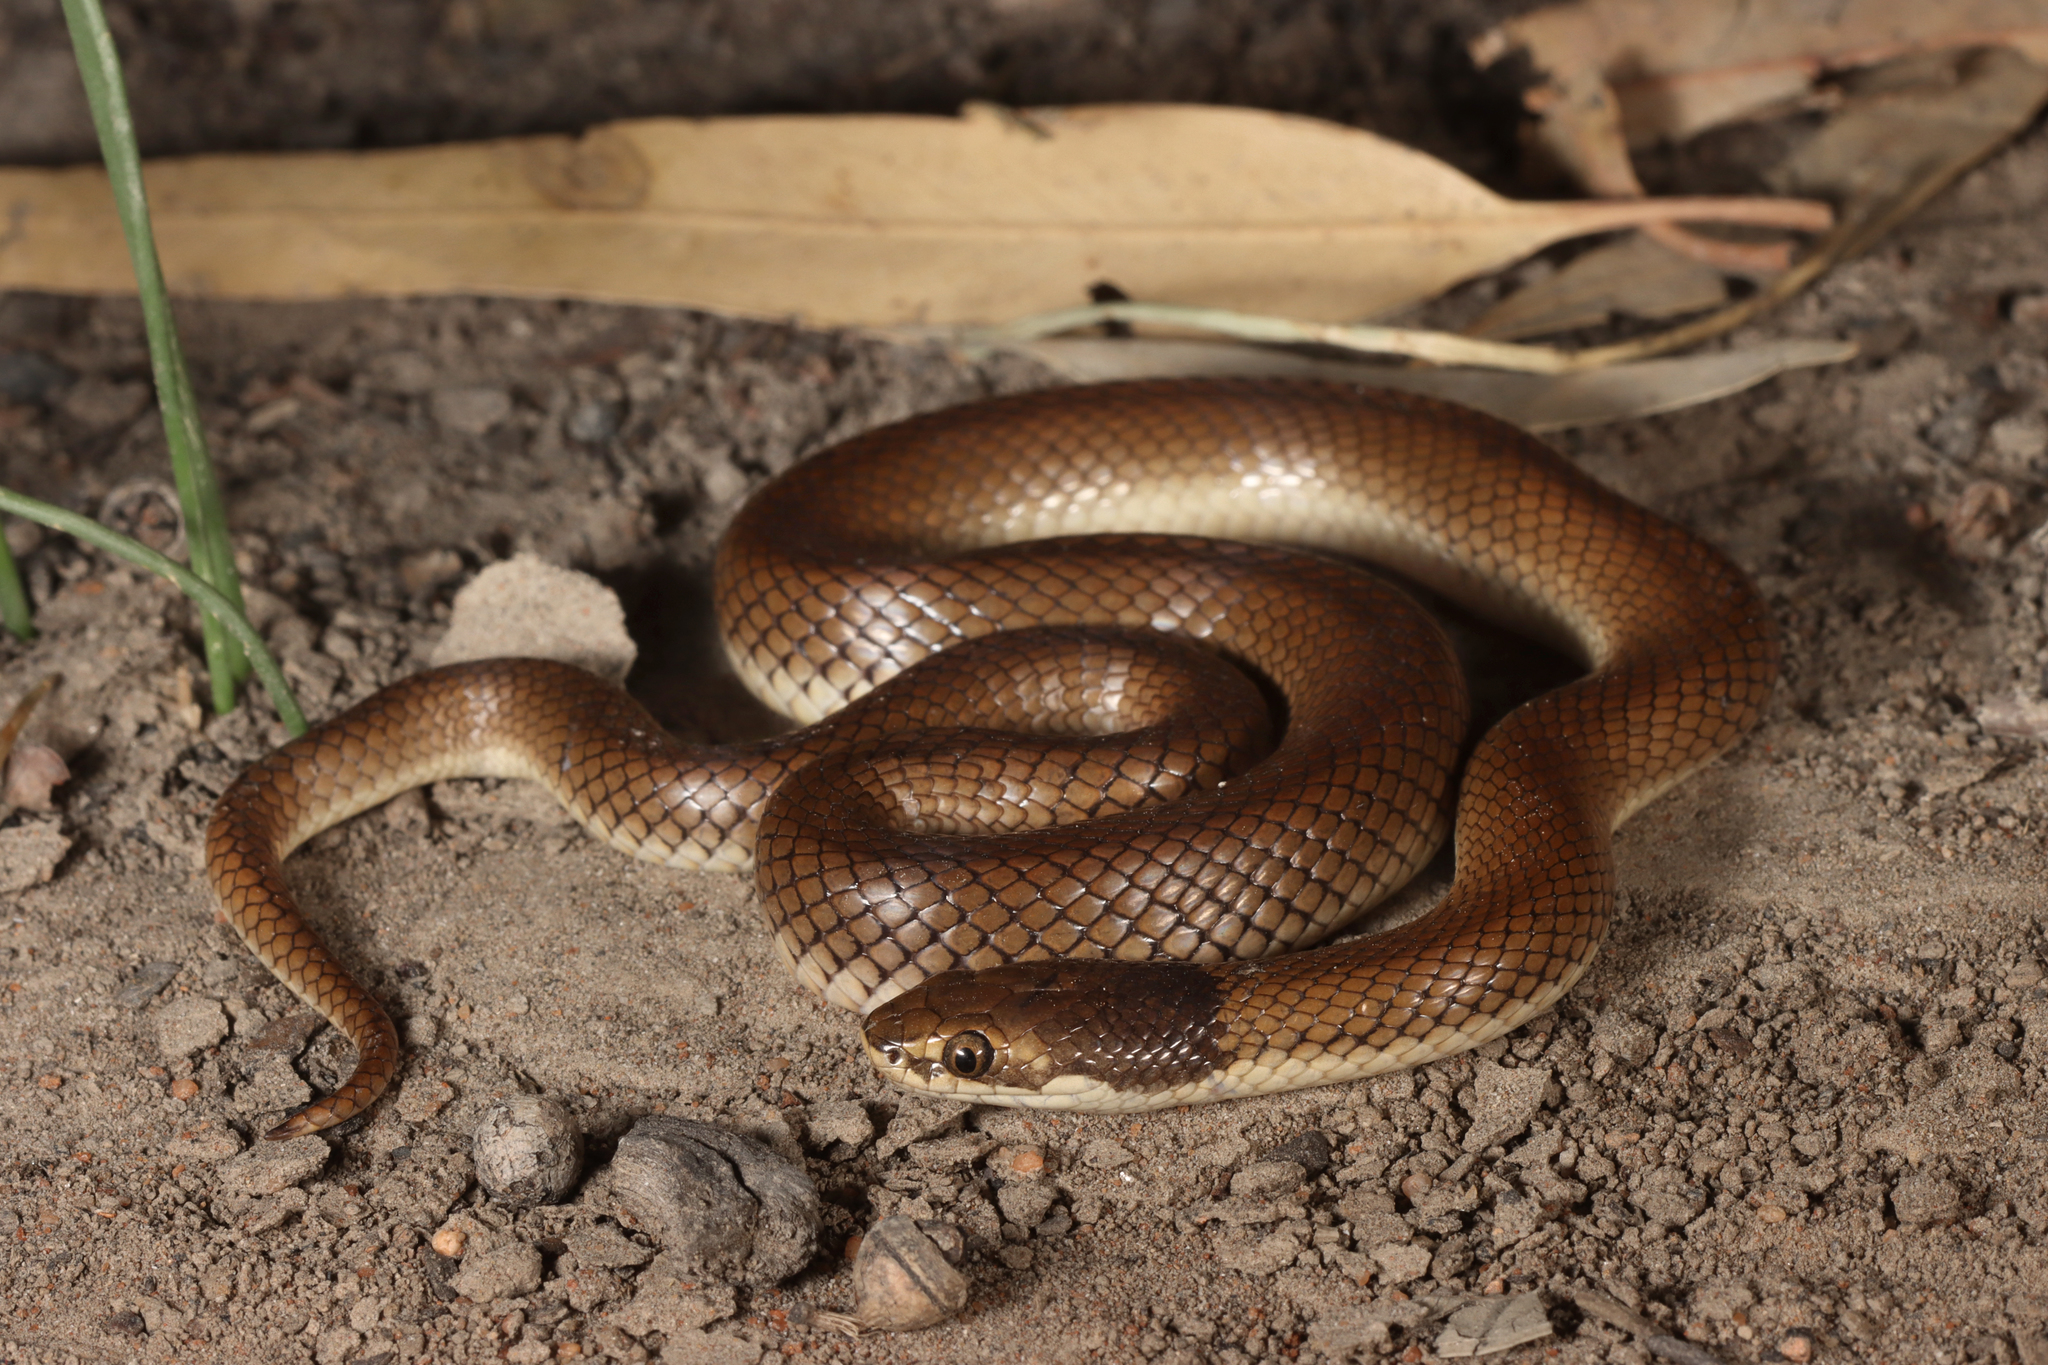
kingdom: Animalia
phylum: Chordata
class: Squamata
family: Elapidae
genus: Suta
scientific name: Suta suta
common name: Curl snake
